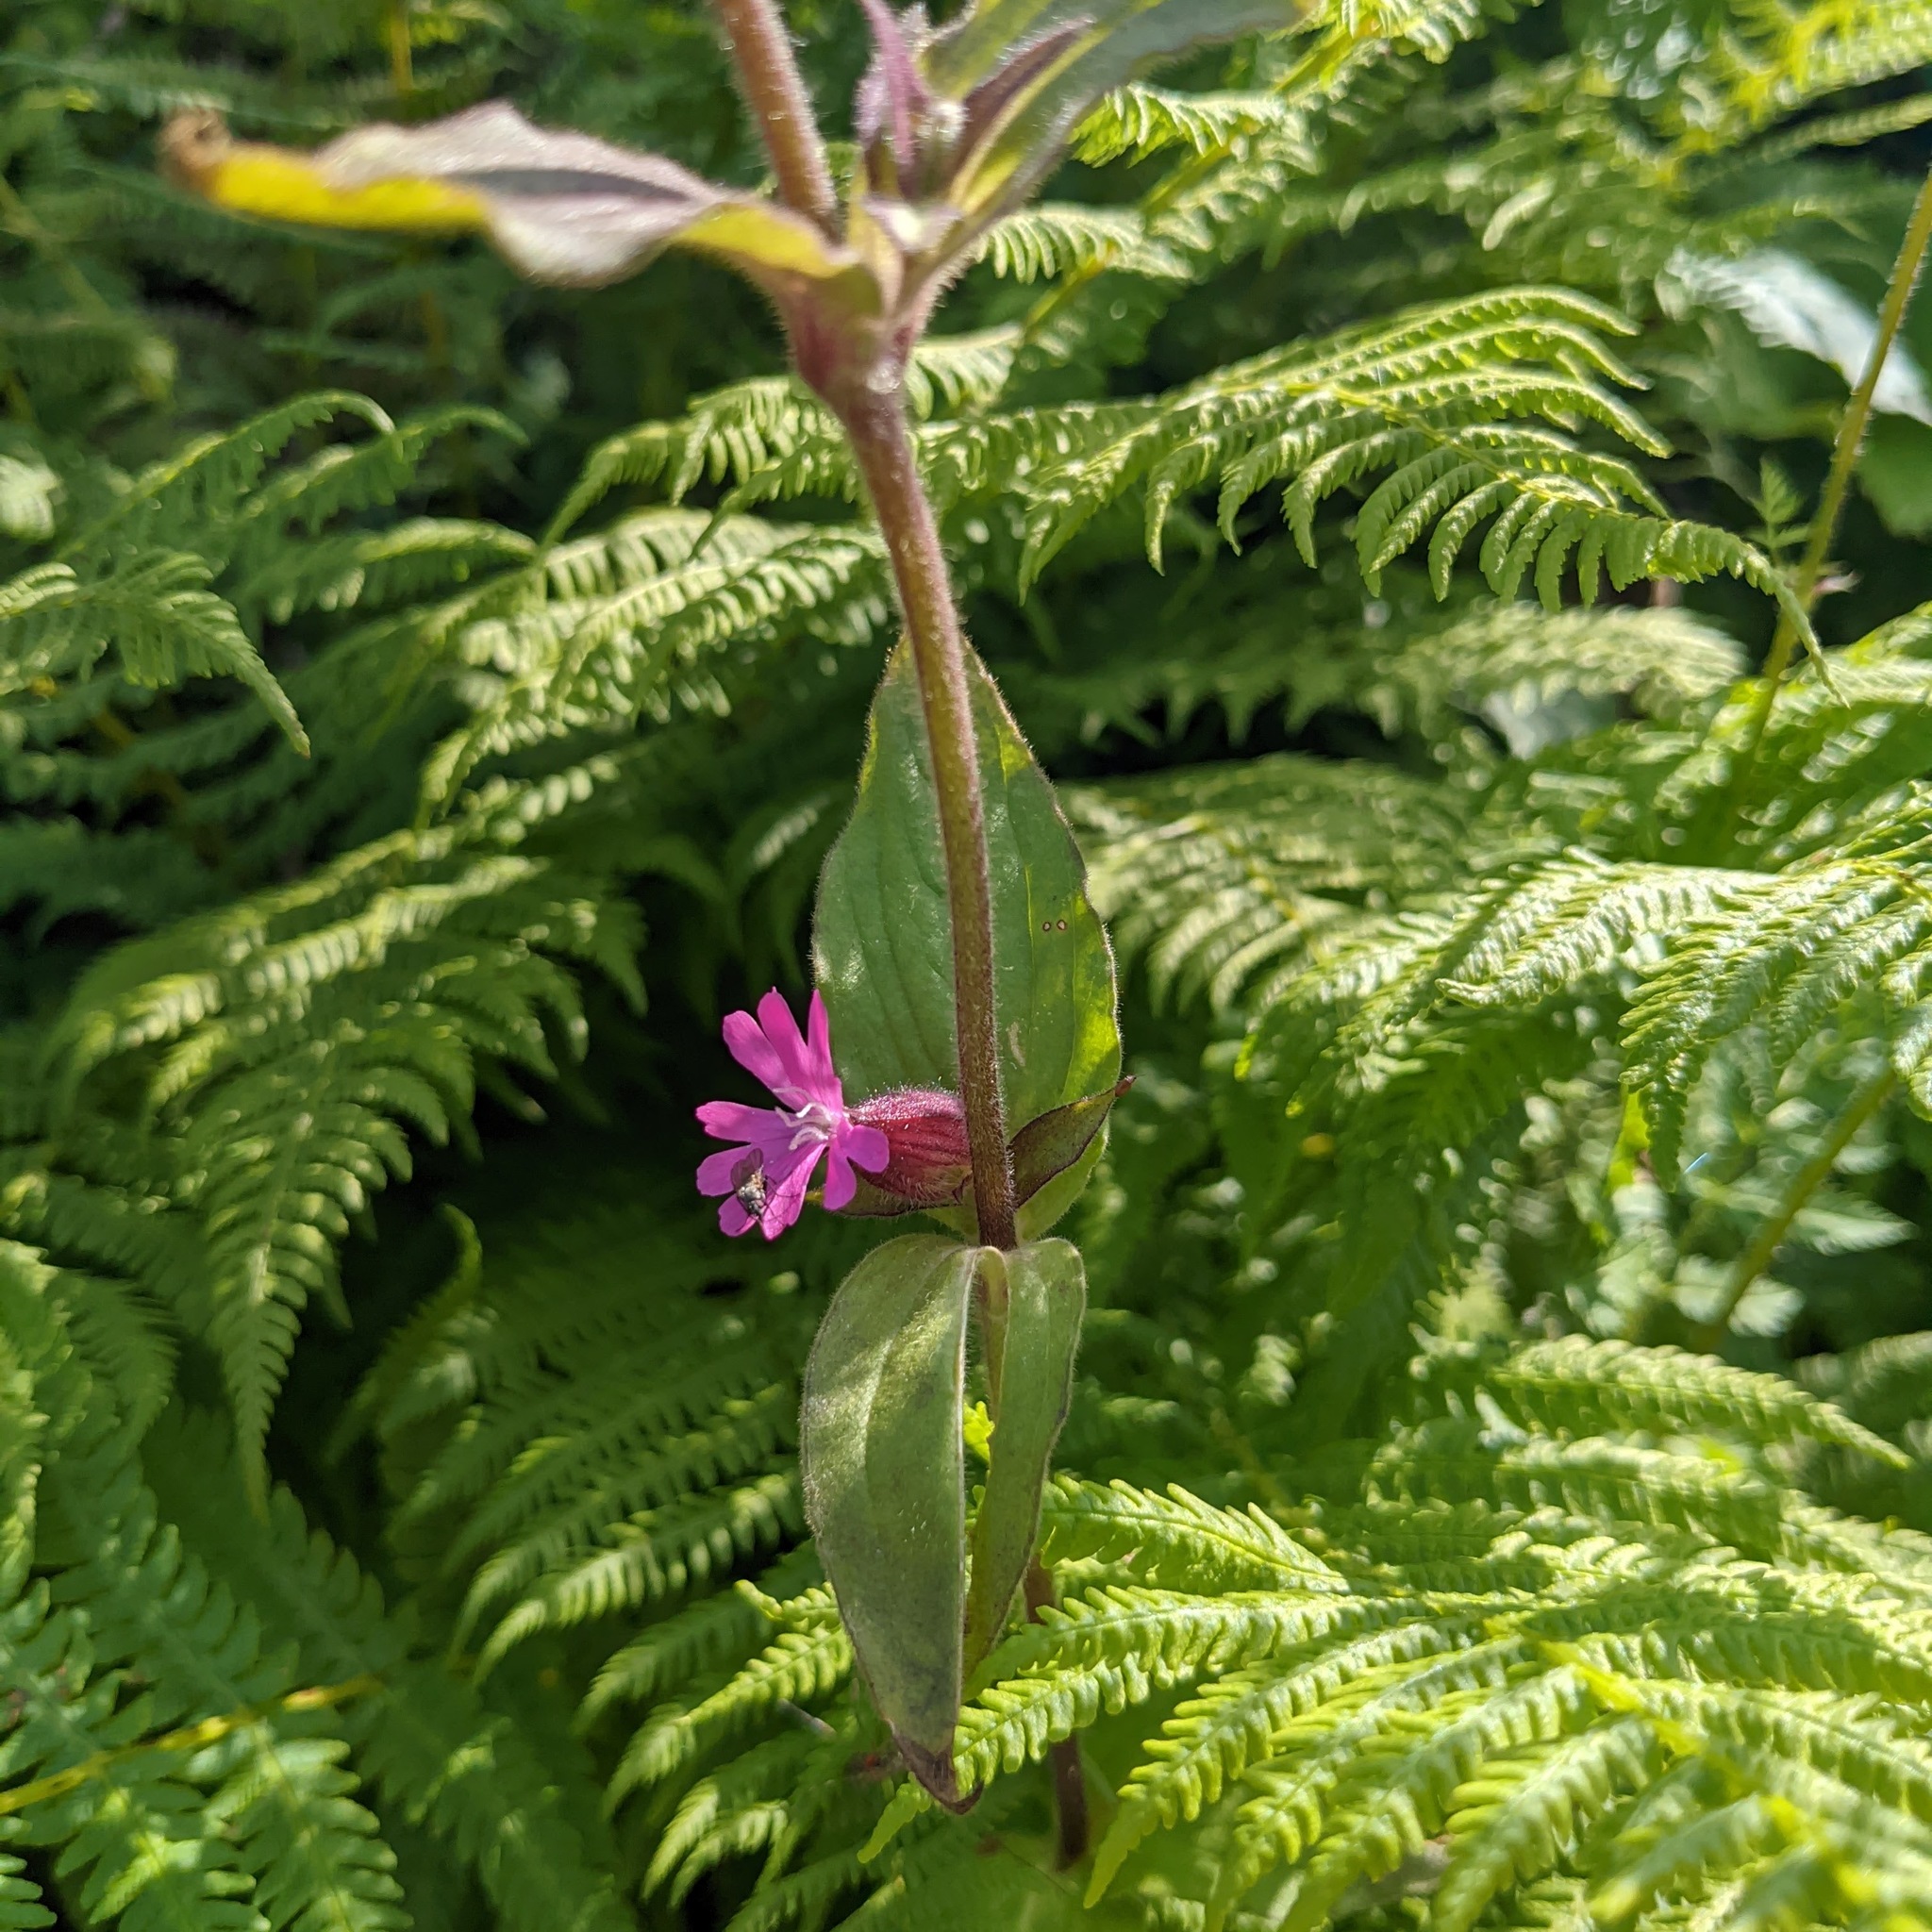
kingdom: Plantae
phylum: Tracheophyta
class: Magnoliopsida
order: Caryophyllales
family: Caryophyllaceae
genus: Silene
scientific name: Silene dioica
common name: Red campion
